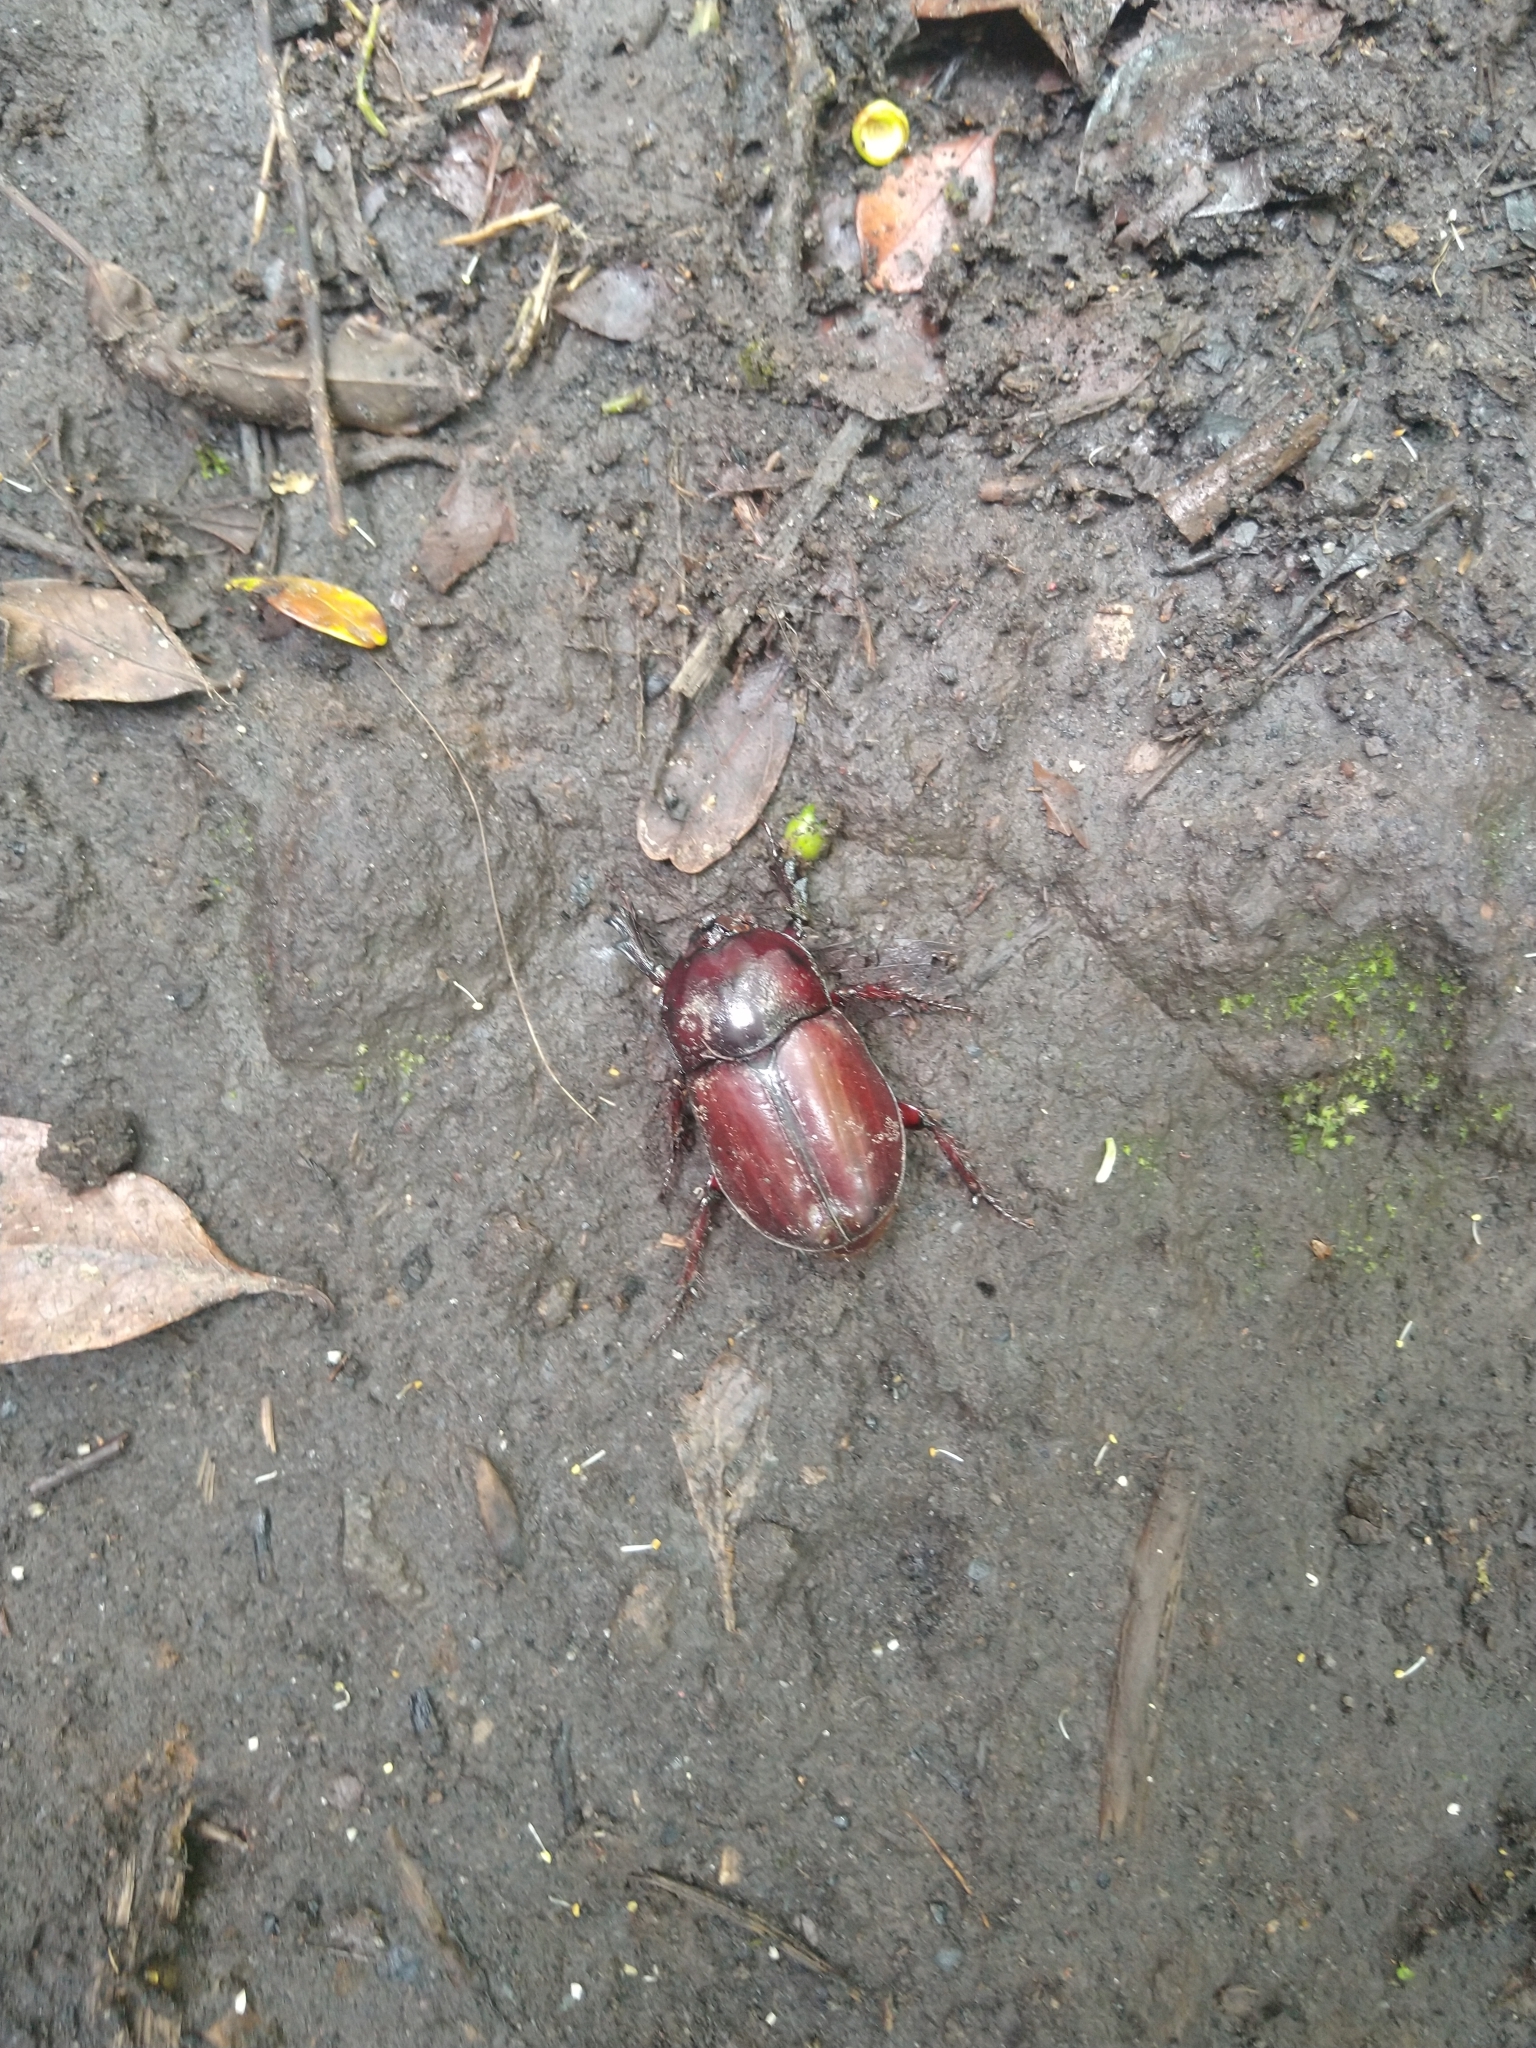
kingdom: Animalia
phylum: Arthropoda
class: Insecta
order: Coleoptera
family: Scarabaeidae
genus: Enema
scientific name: Enema endymion
